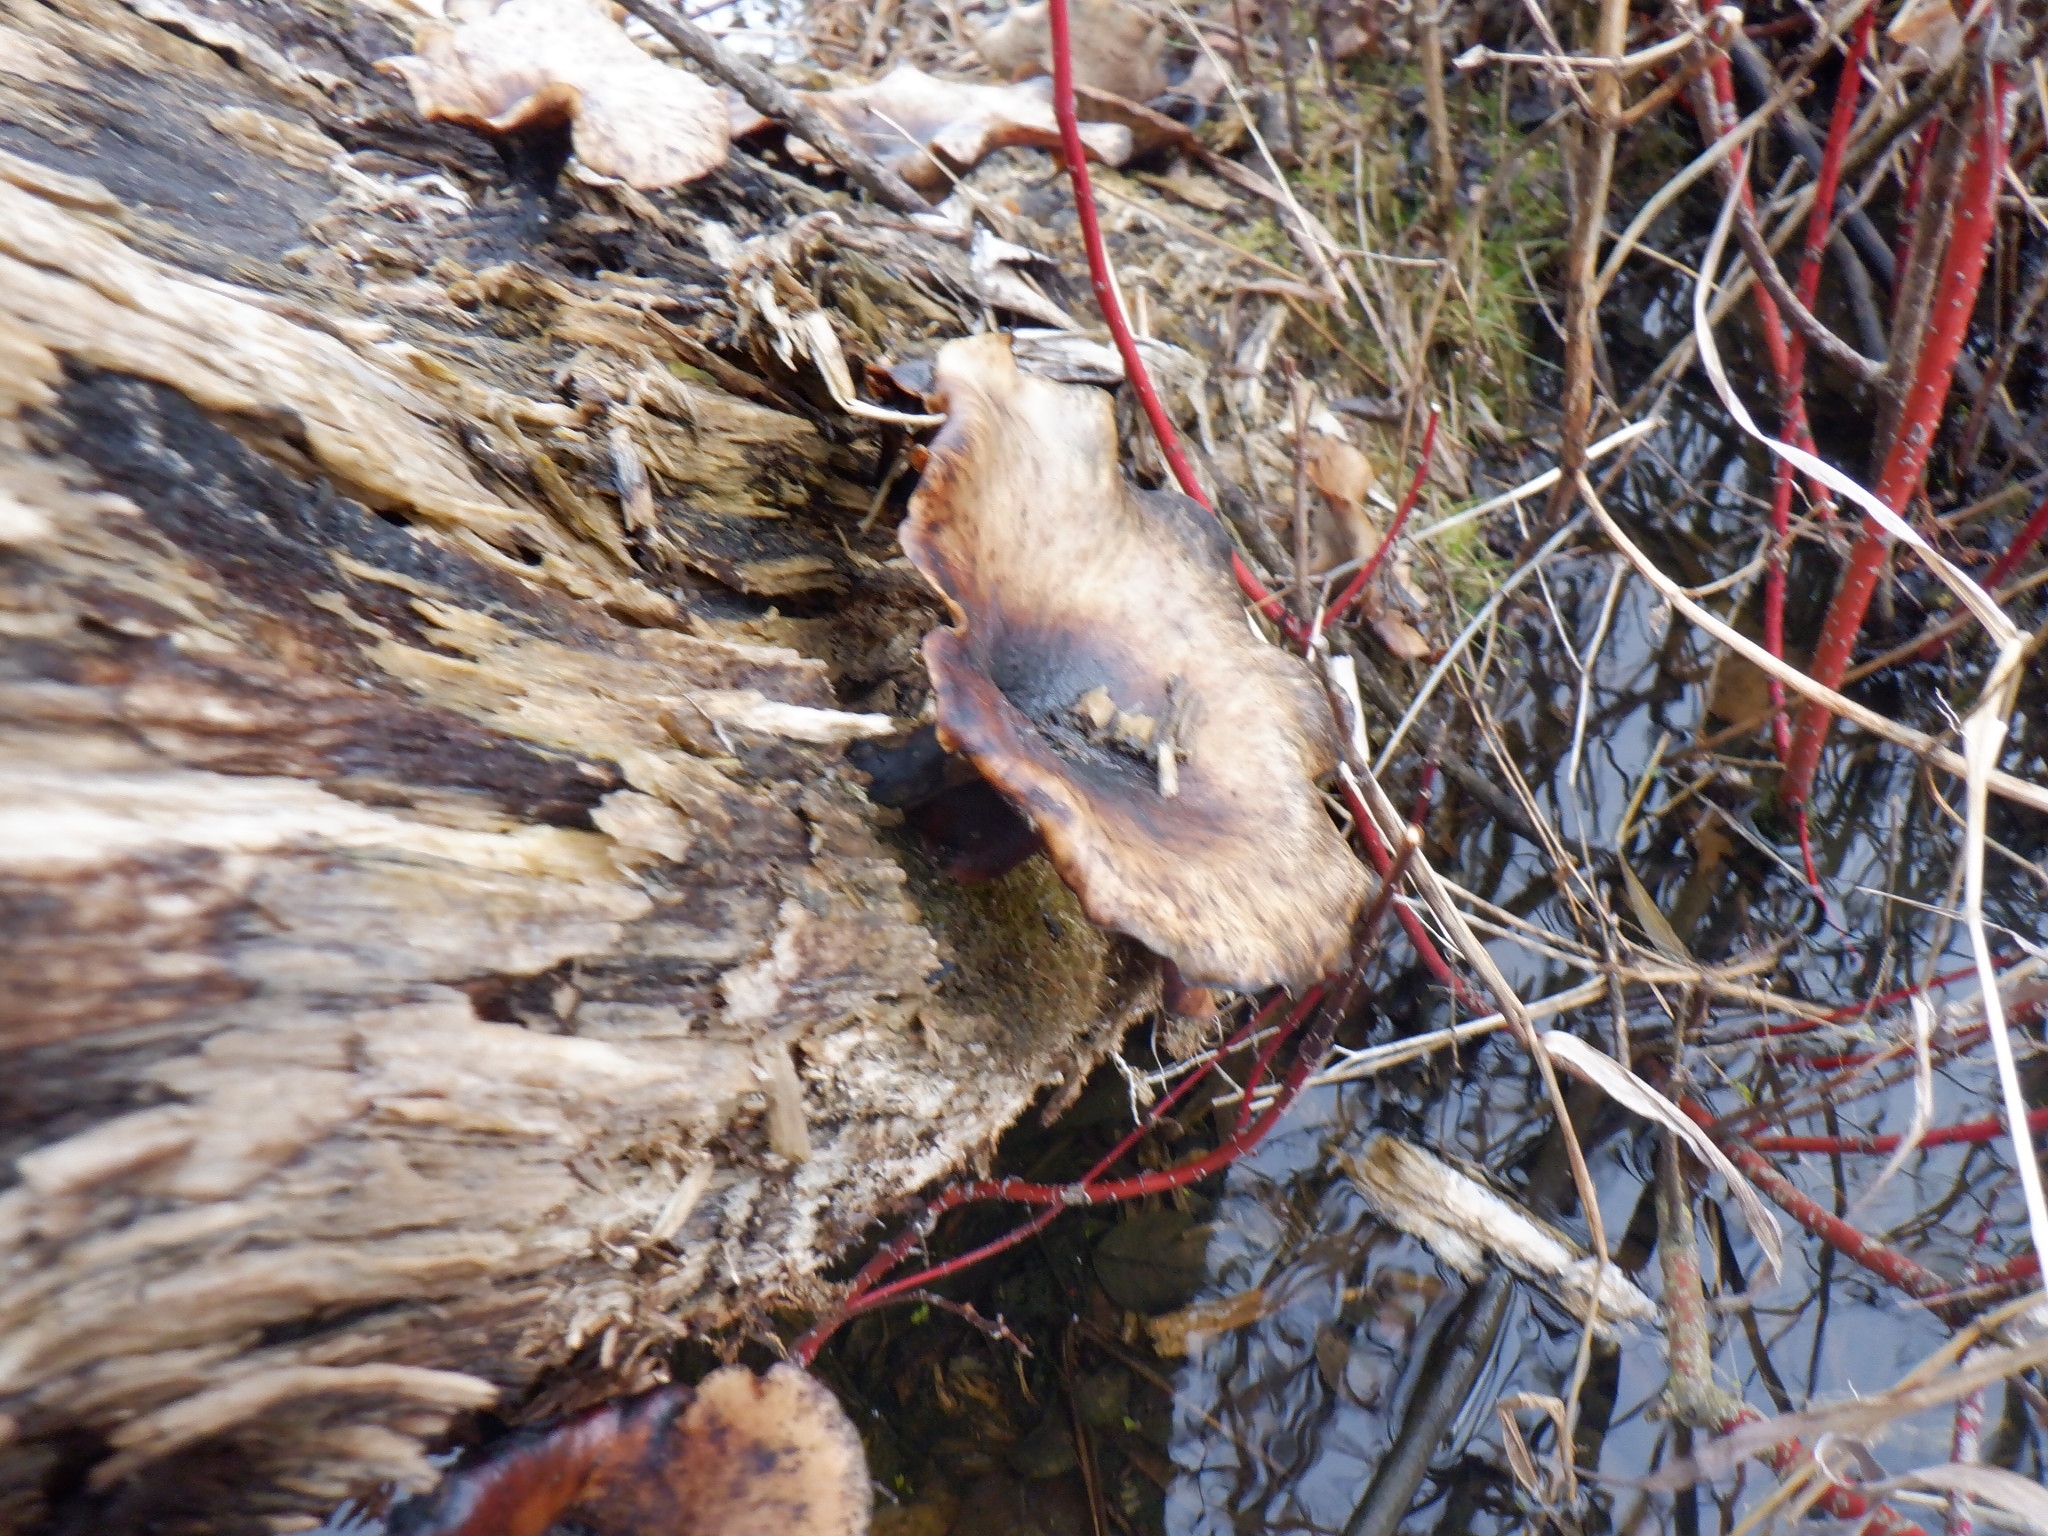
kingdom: Fungi
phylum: Basidiomycota
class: Agaricomycetes
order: Polyporales
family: Polyporaceae
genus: Picipes
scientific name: Picipes badius
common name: Bay polypore
